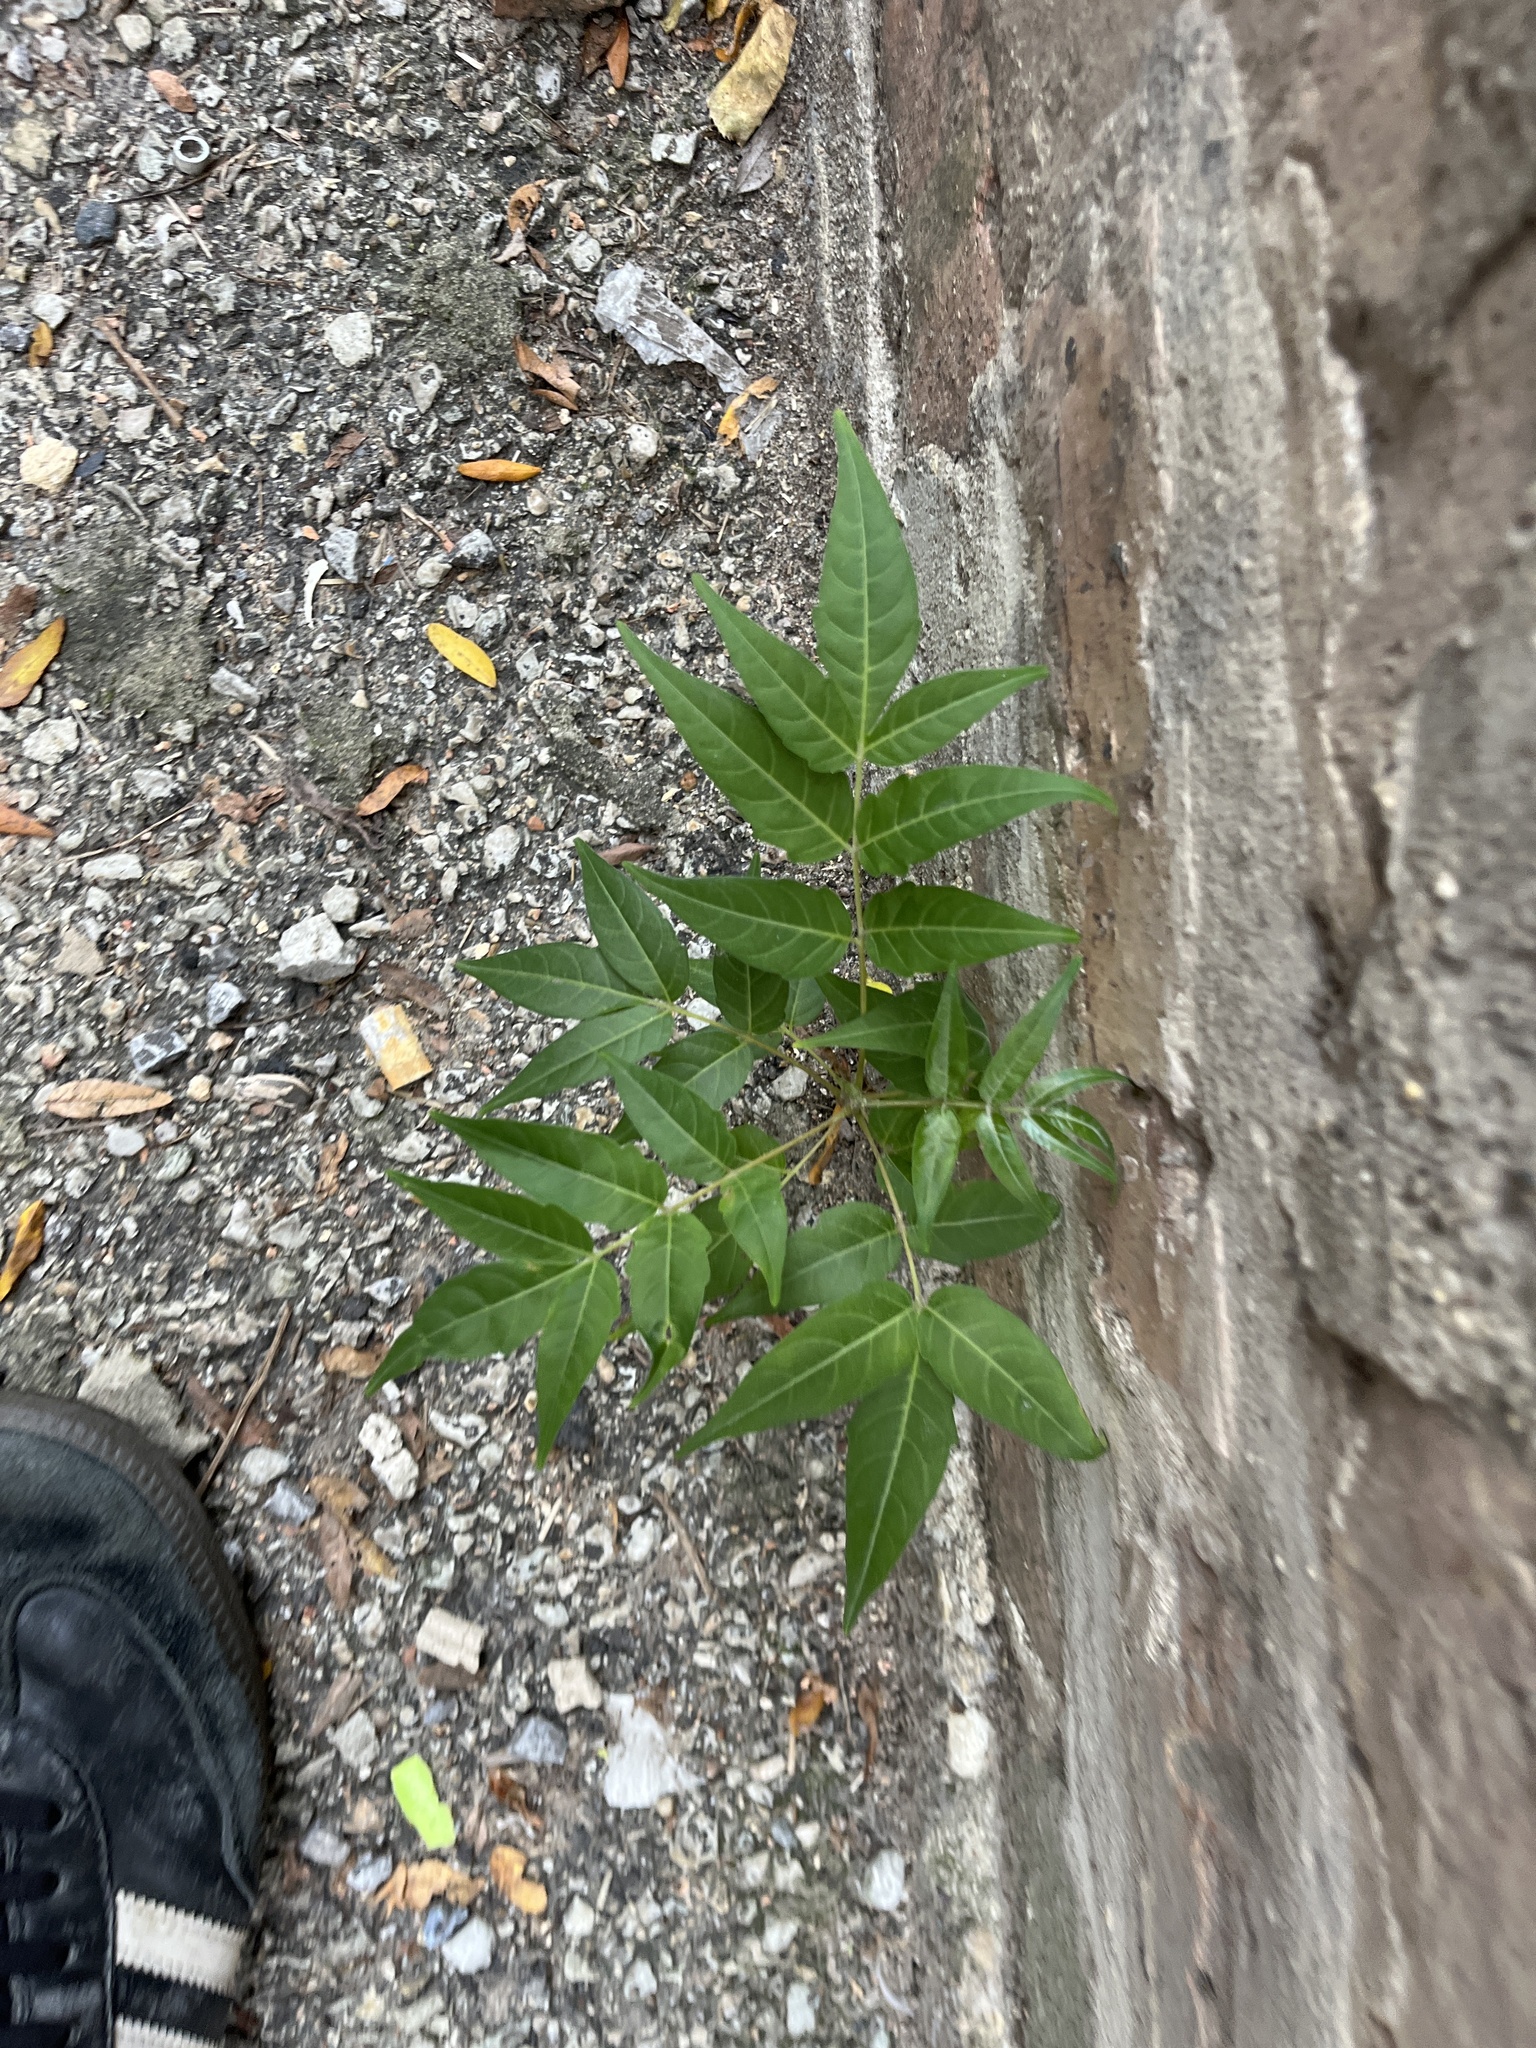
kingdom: Plantae
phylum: Tracheophyta
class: Magnoliopsida
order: Sapindales
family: Simaroubaceae
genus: Ailanthus
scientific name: Ailanthus altissima
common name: Tree-of-heaven
